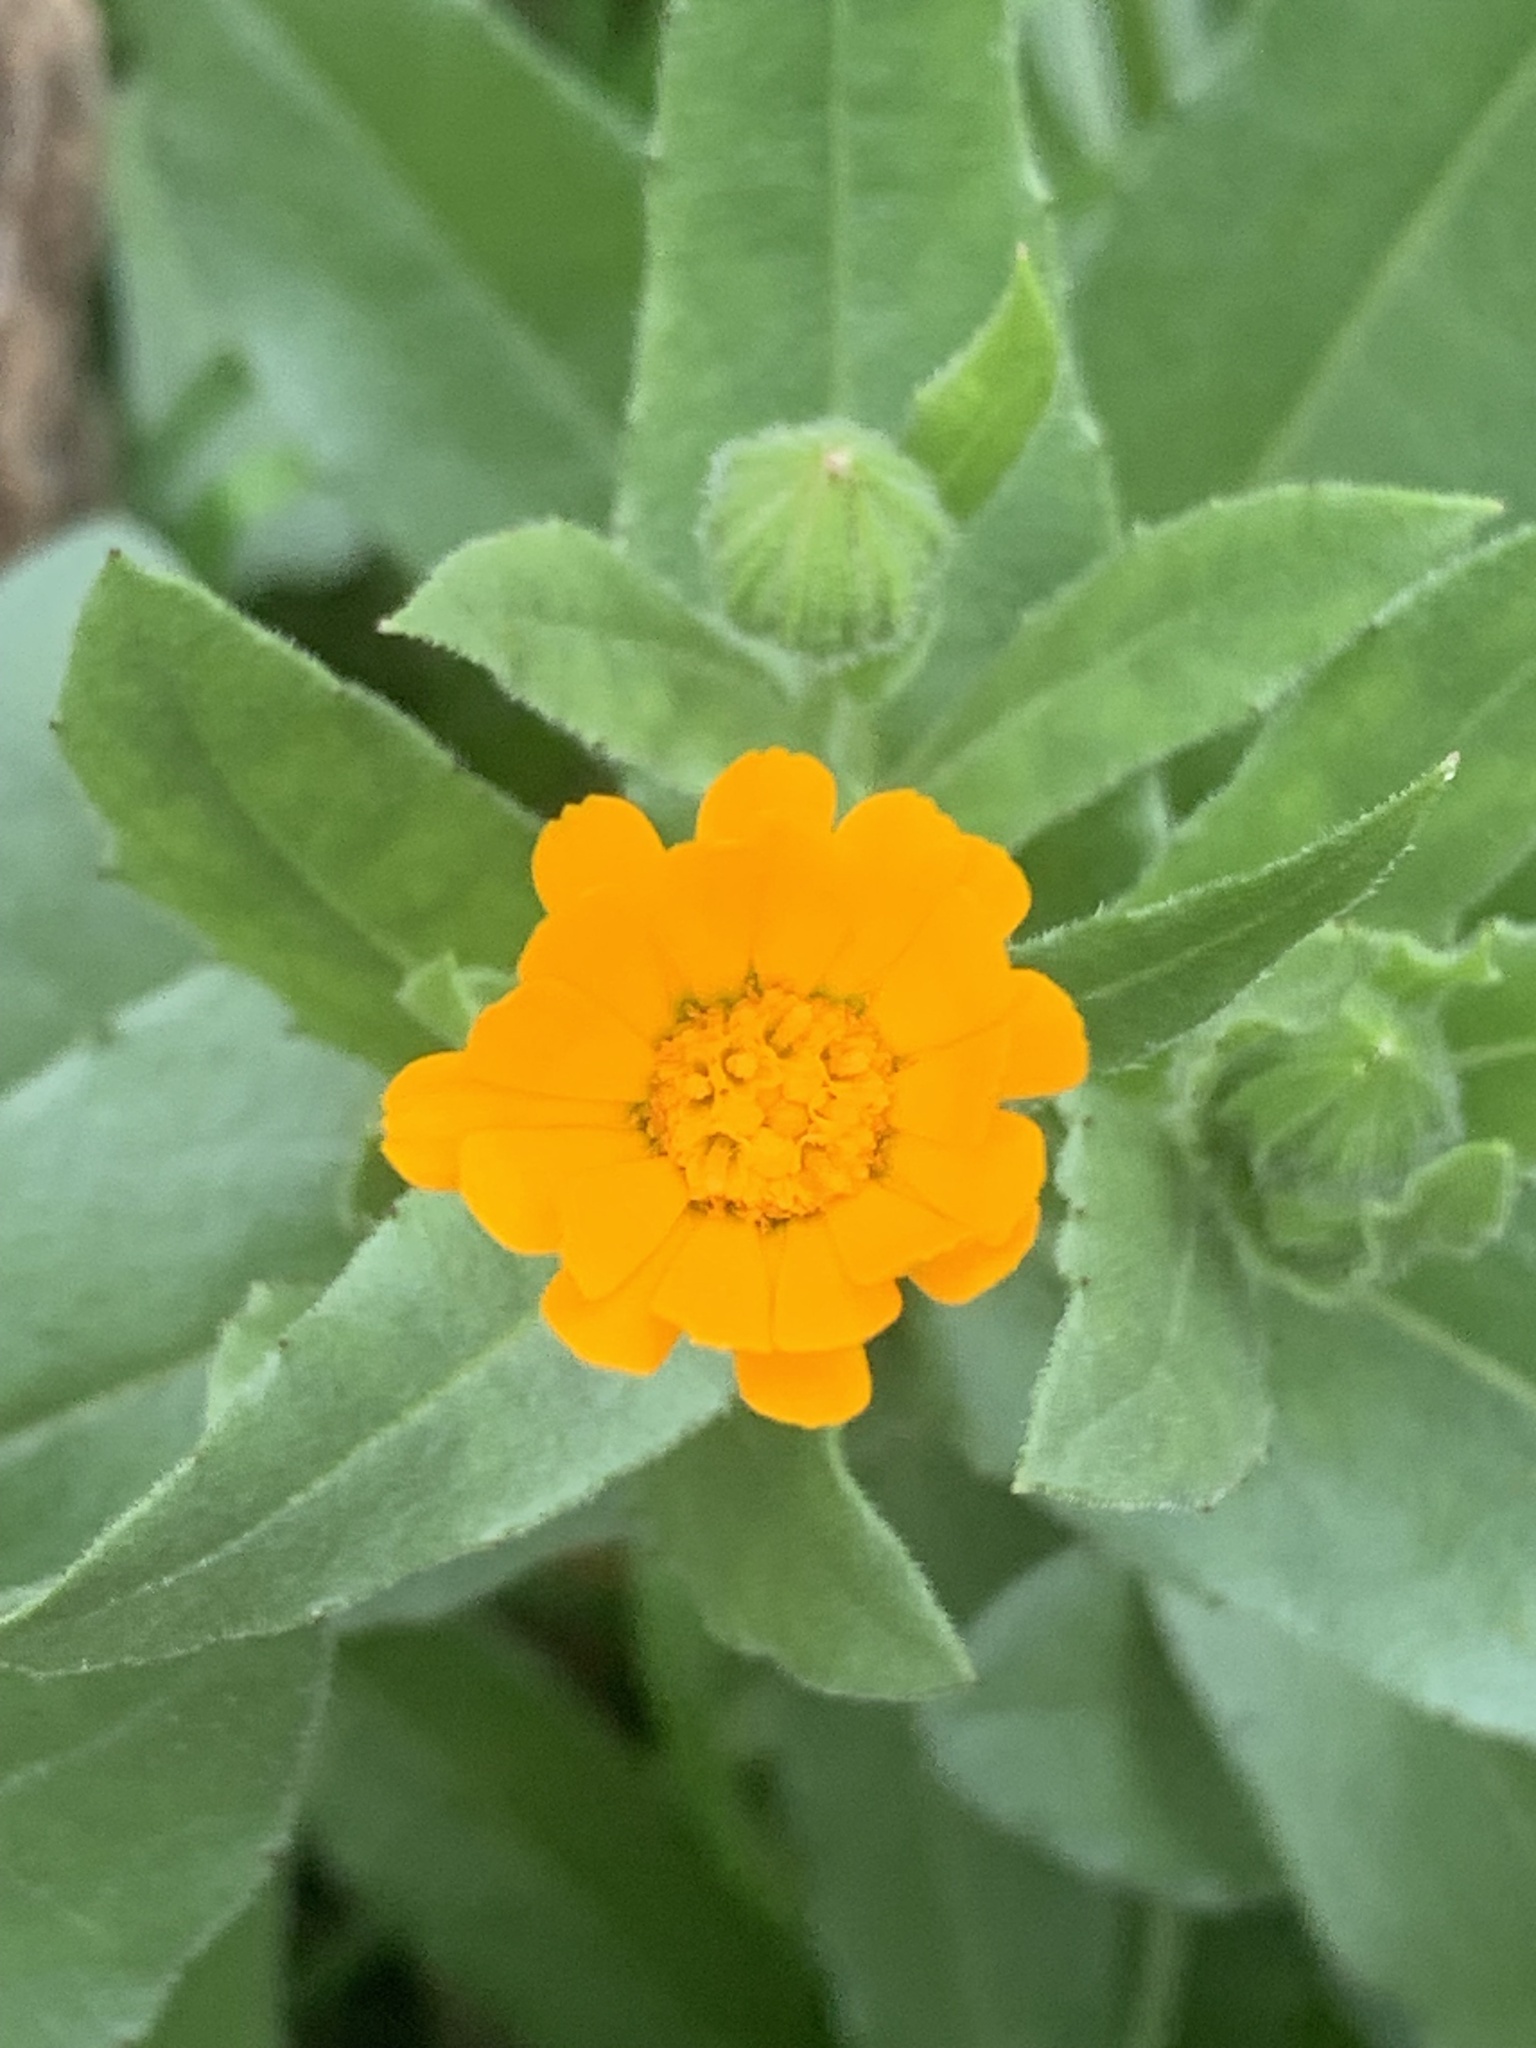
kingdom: Plantae
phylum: Tracheophyta
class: Magnoliopsida
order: Asterales
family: Asteraceae
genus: Calendula
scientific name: Calendula arvensis
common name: Field marigold
